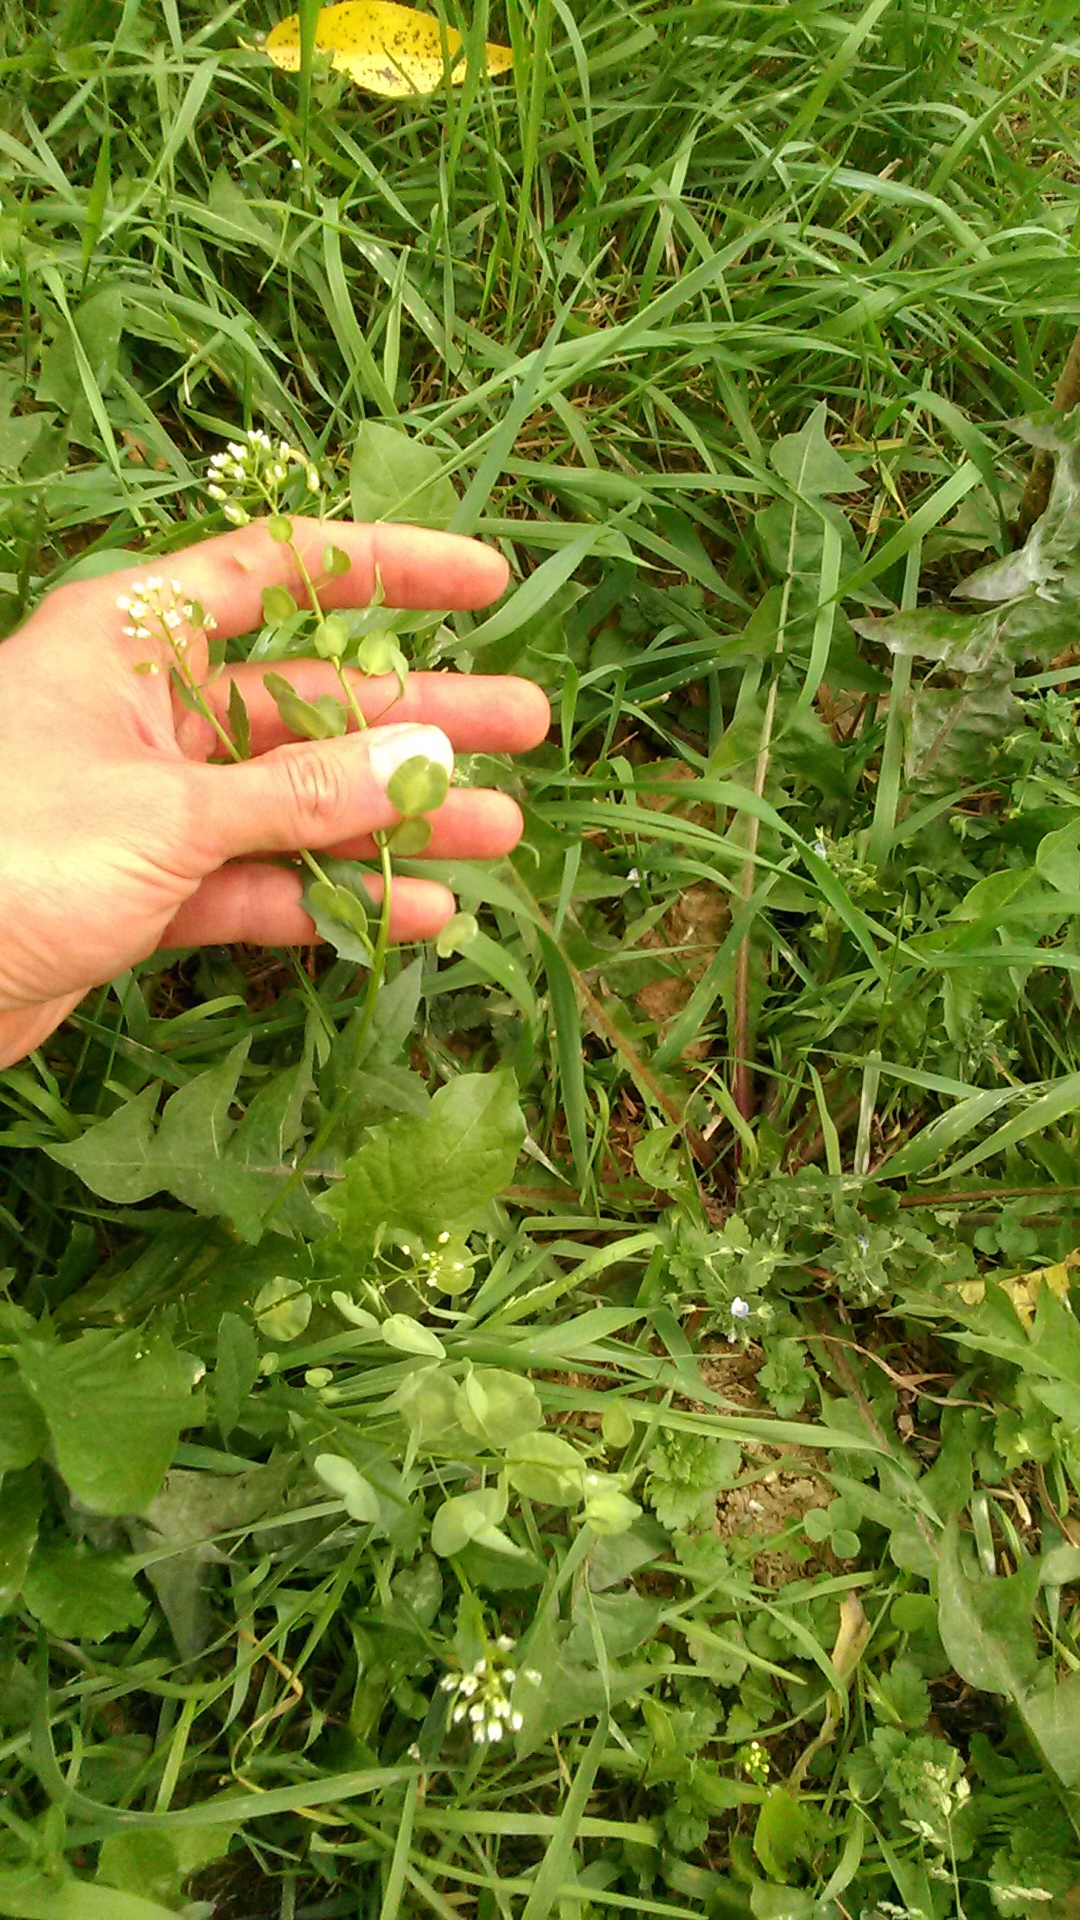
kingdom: Plantae
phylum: Tracheophyta
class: Magnoliopsida
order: Brassicales
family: Brassicaceae
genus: Thlaspi
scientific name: Thlaspi arvense
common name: Field pennycress
